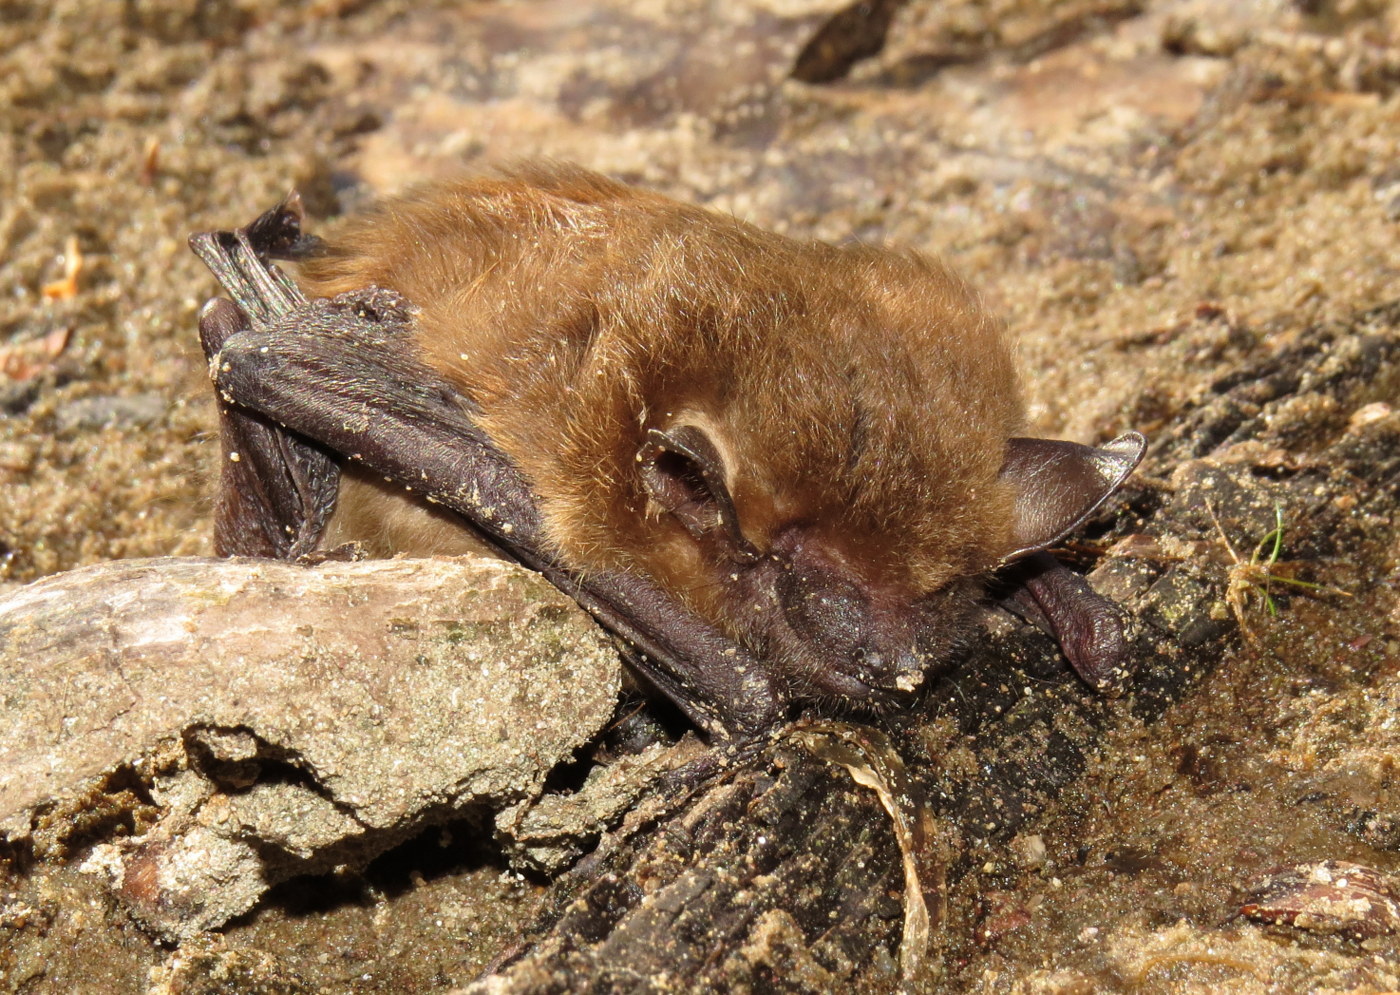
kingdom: Animalia
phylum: Chordata
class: Mammalia
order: Chiroptera
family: Vespertilionidae
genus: Eptesicus
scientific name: Eptesicus fuscus
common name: Big brown bat
